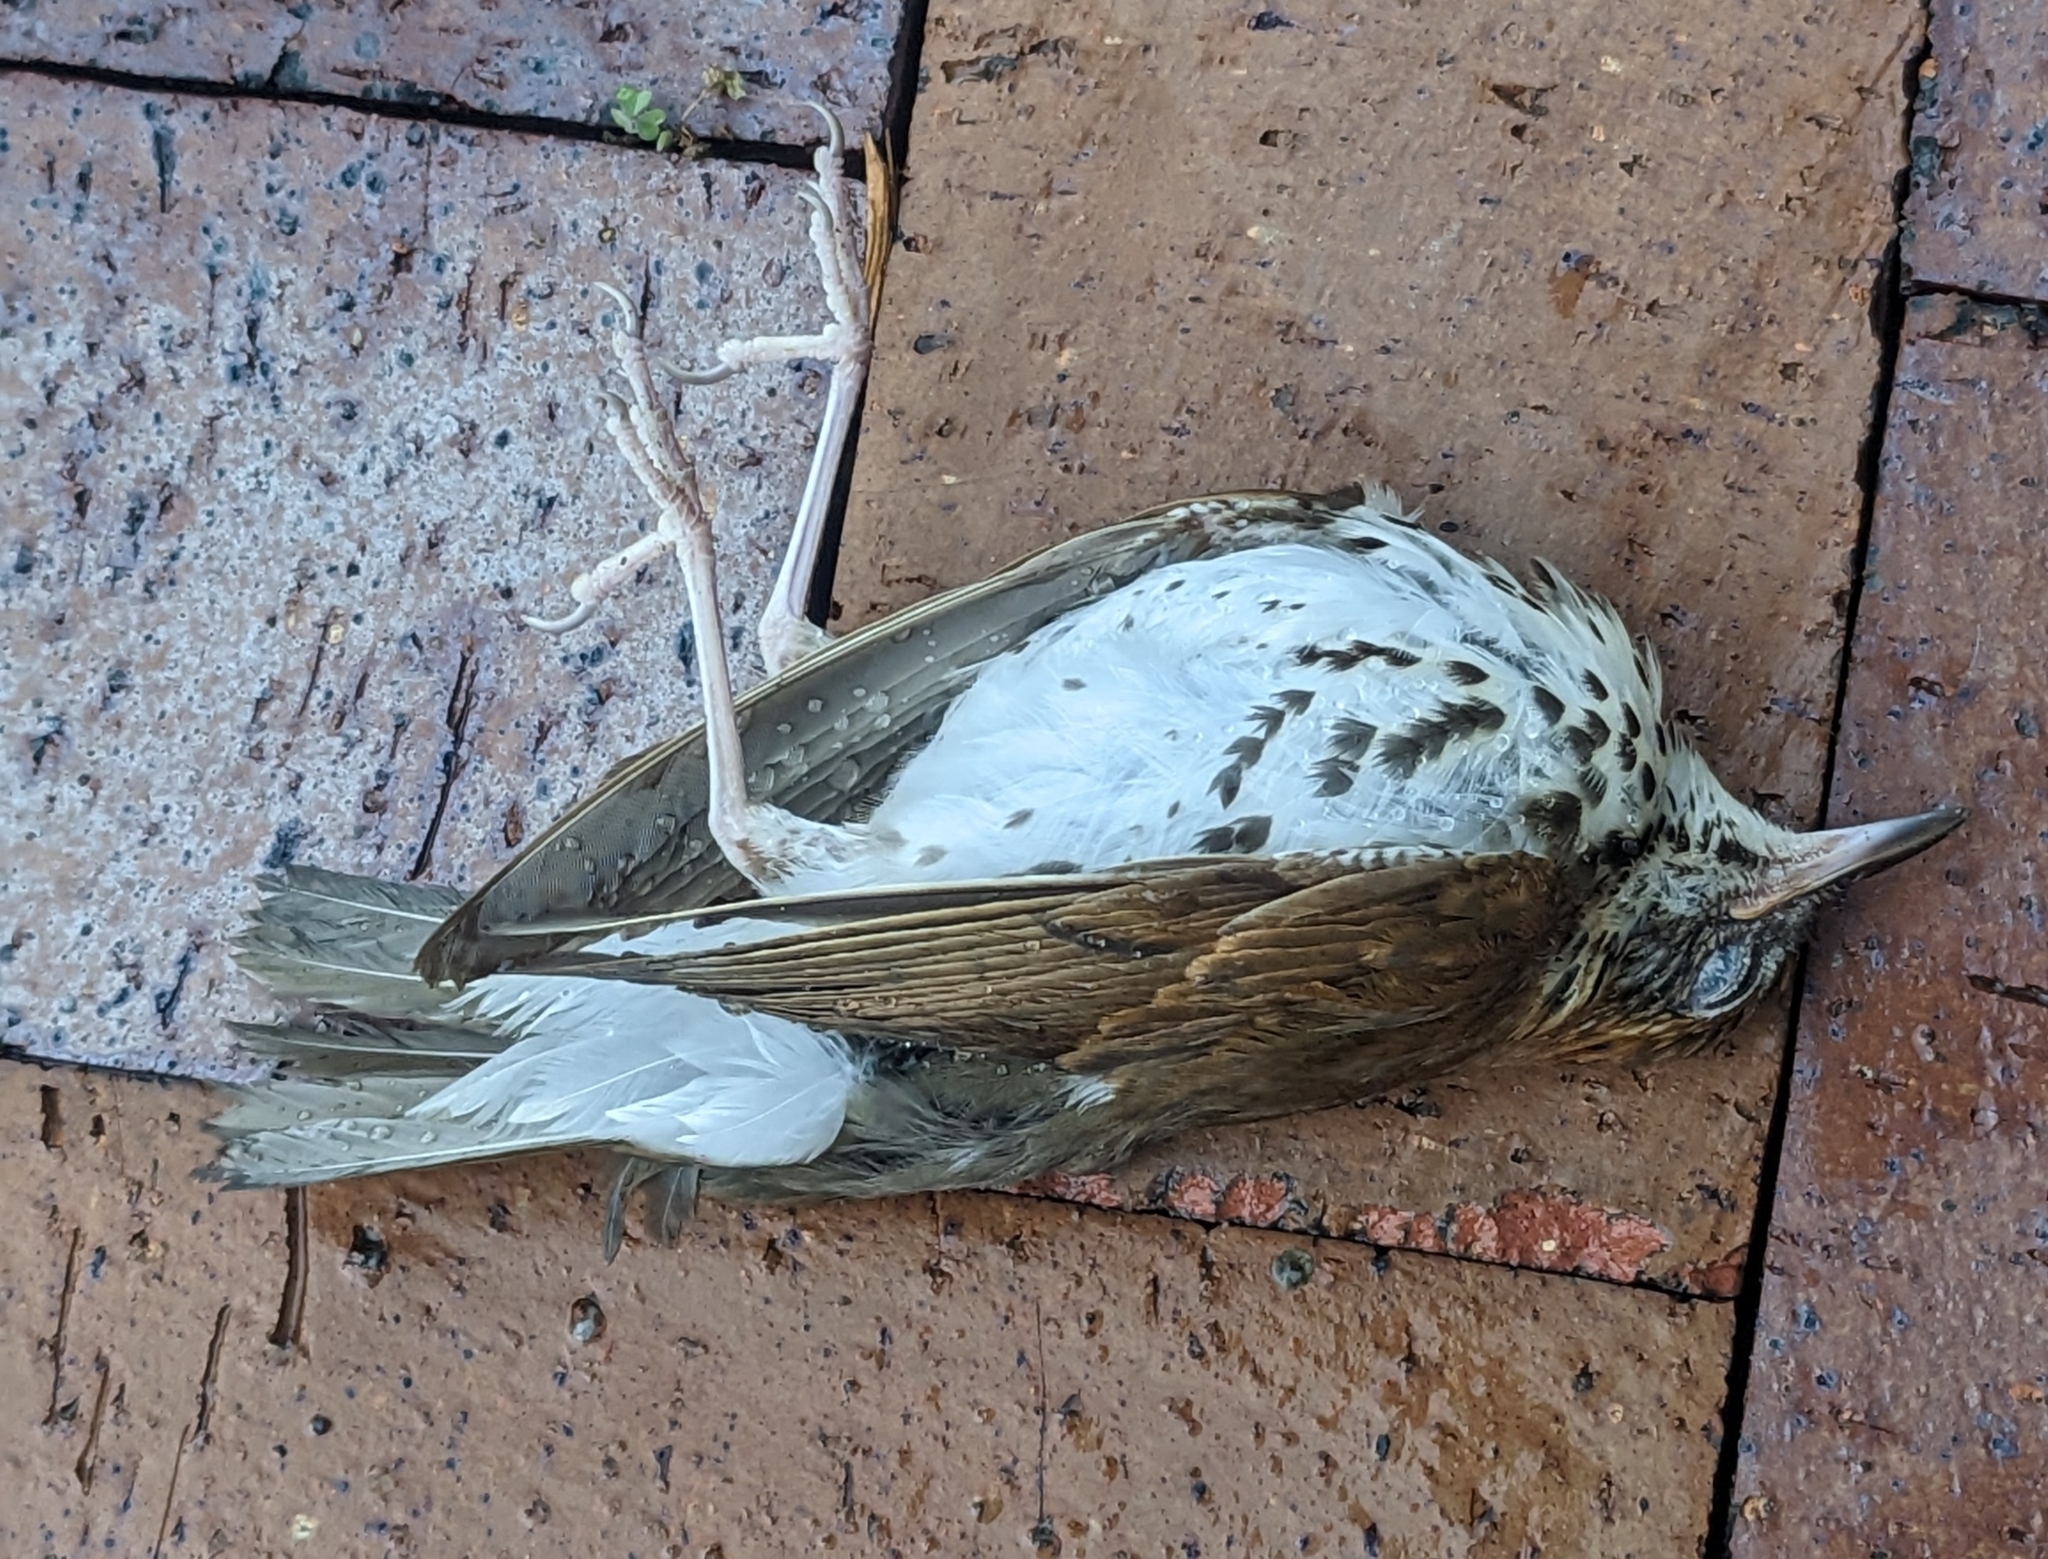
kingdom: Animalia
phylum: Chordata
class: Aves
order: Passeriformes
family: Turdidae
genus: Hylocichla
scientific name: Hylocichla mustelina
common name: Wood thrush
